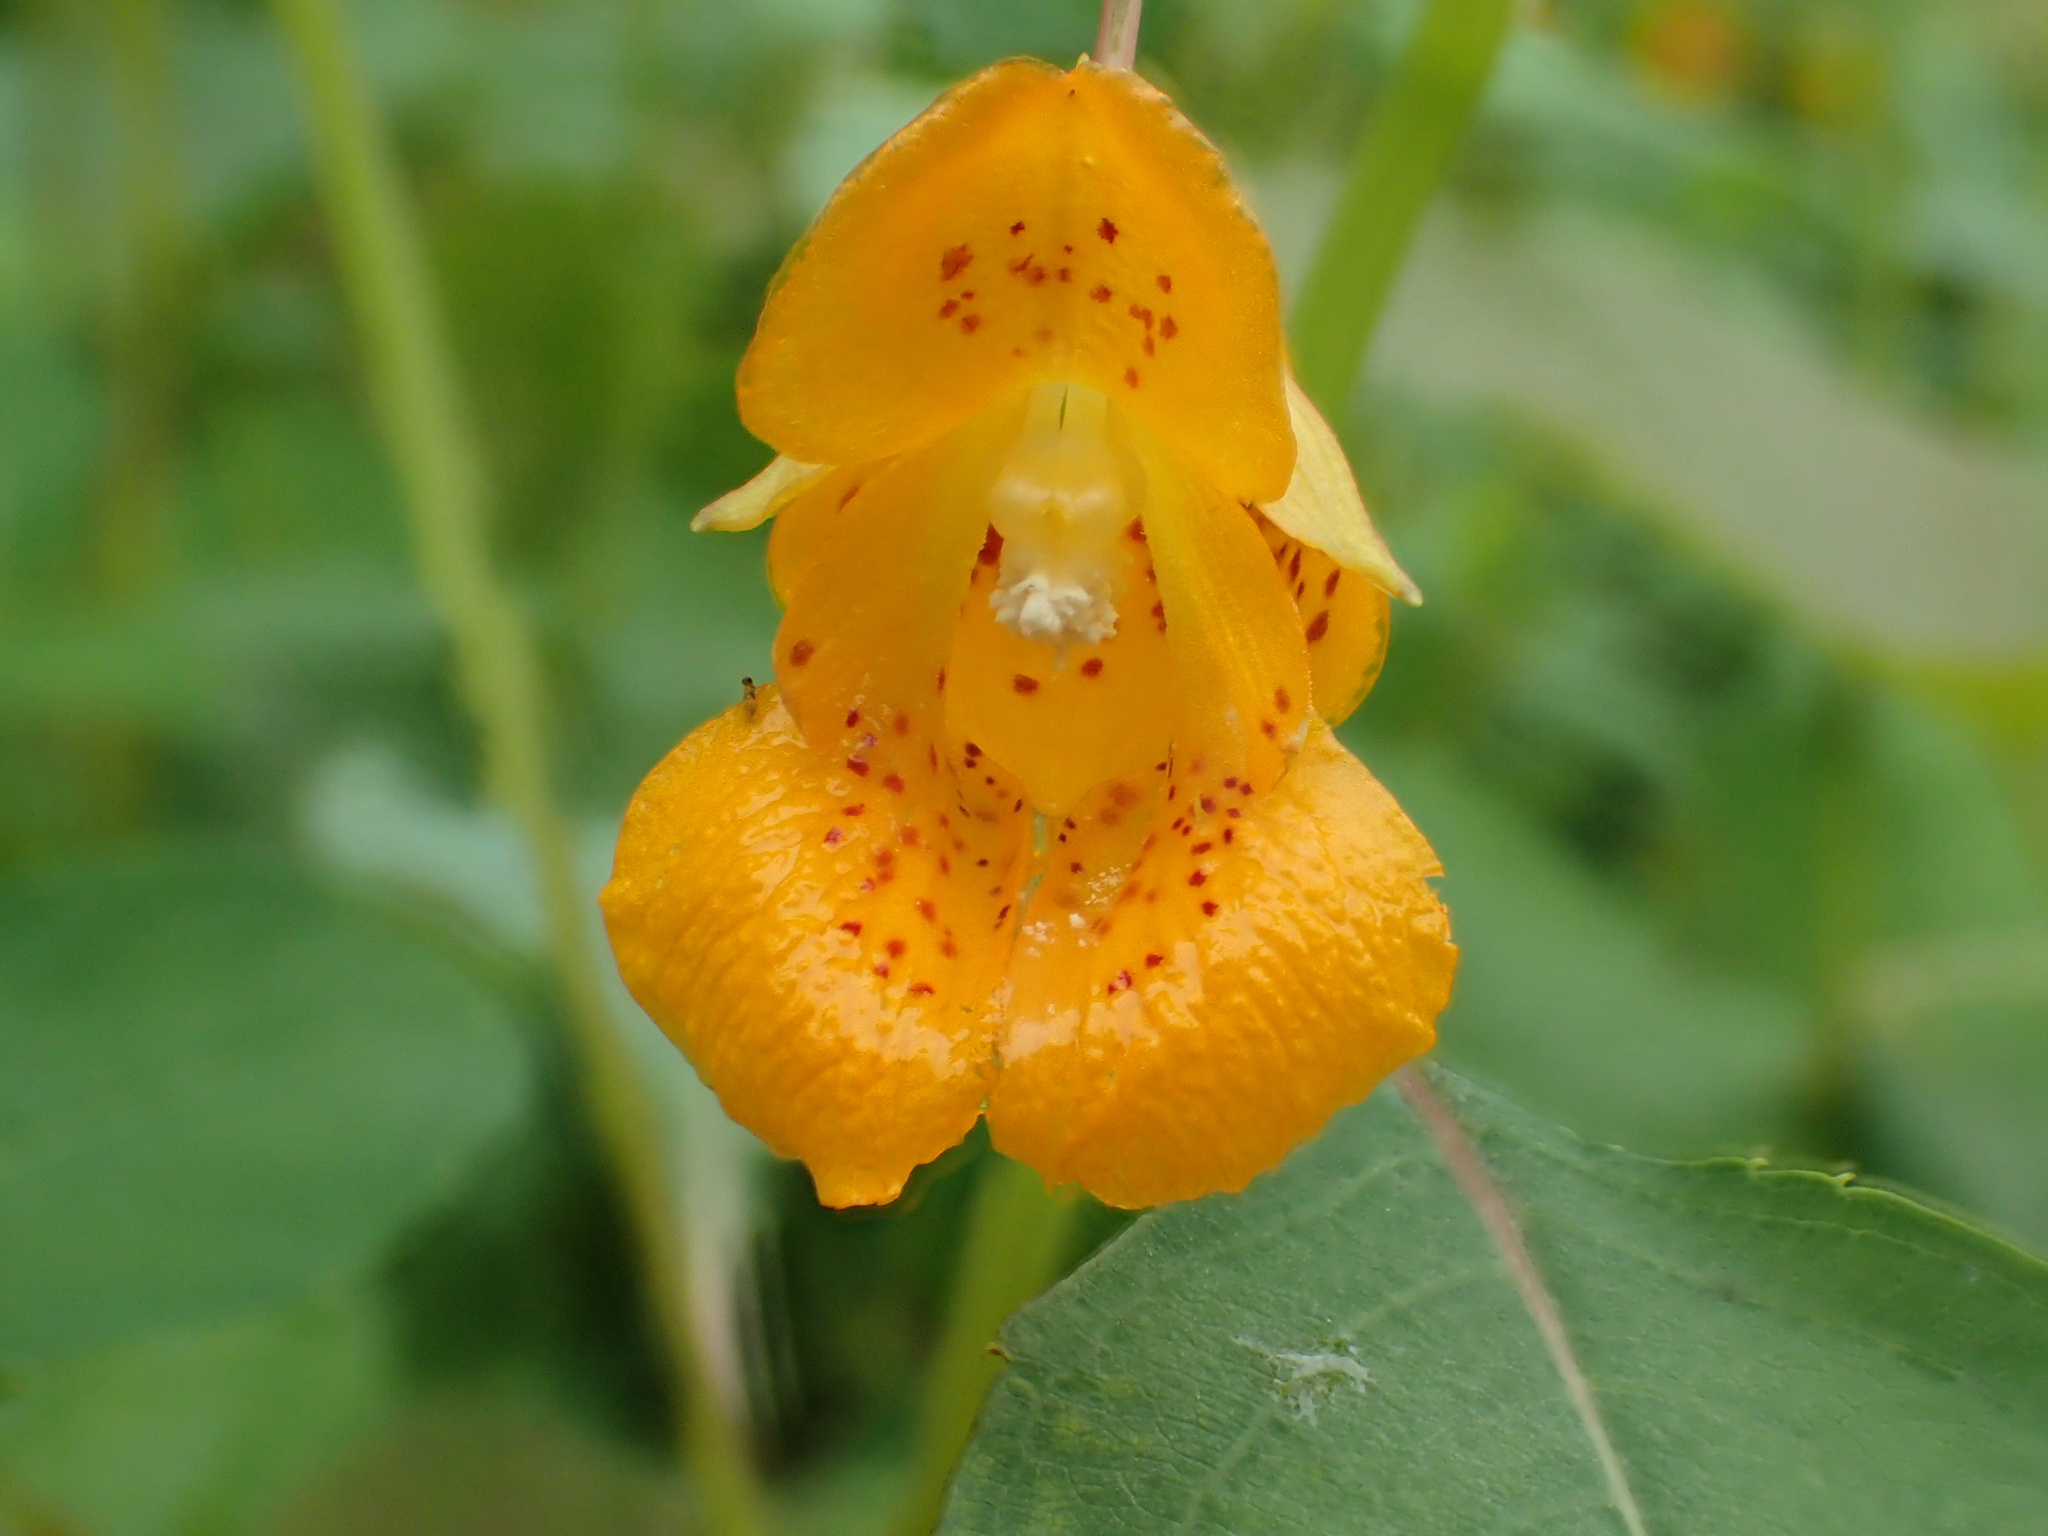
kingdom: Plantae
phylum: Tracheophyta
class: Magnoliopsida
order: Ericales
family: Balsaminaceae
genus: Impatiens
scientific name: Impatiens capensis
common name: Orange balsam
